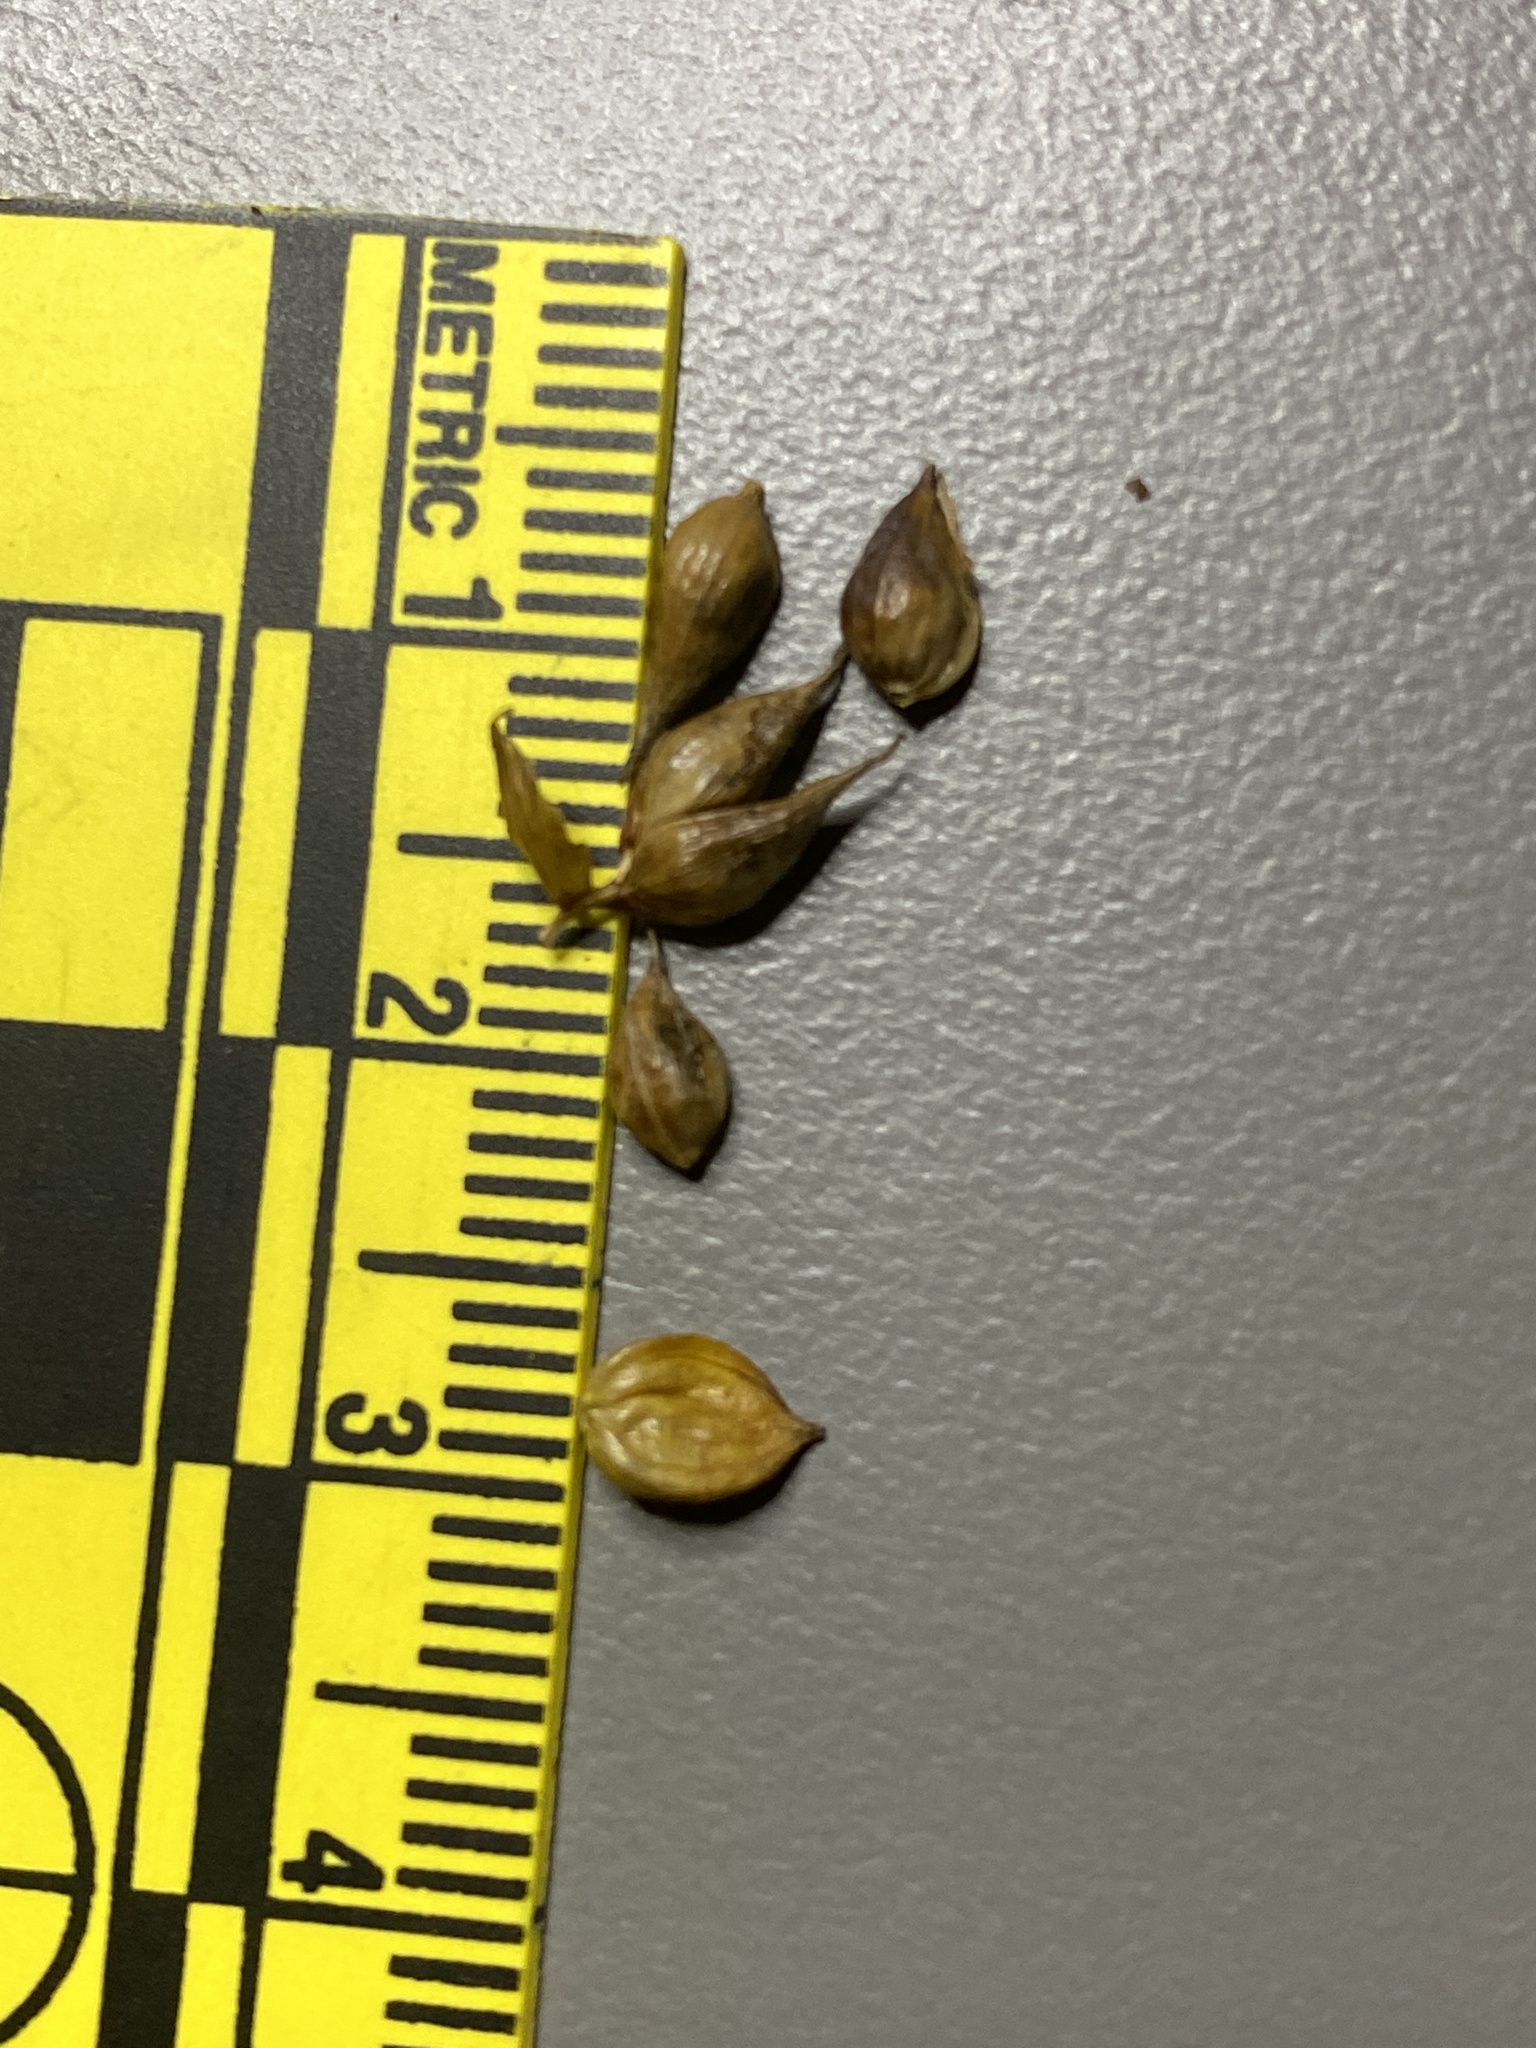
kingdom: Plantae
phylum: Tracheophyta
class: Liliopsida
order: Poales
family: Cyperaceae
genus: Carex
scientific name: Carex oligosperma
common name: Few-seed sedge
